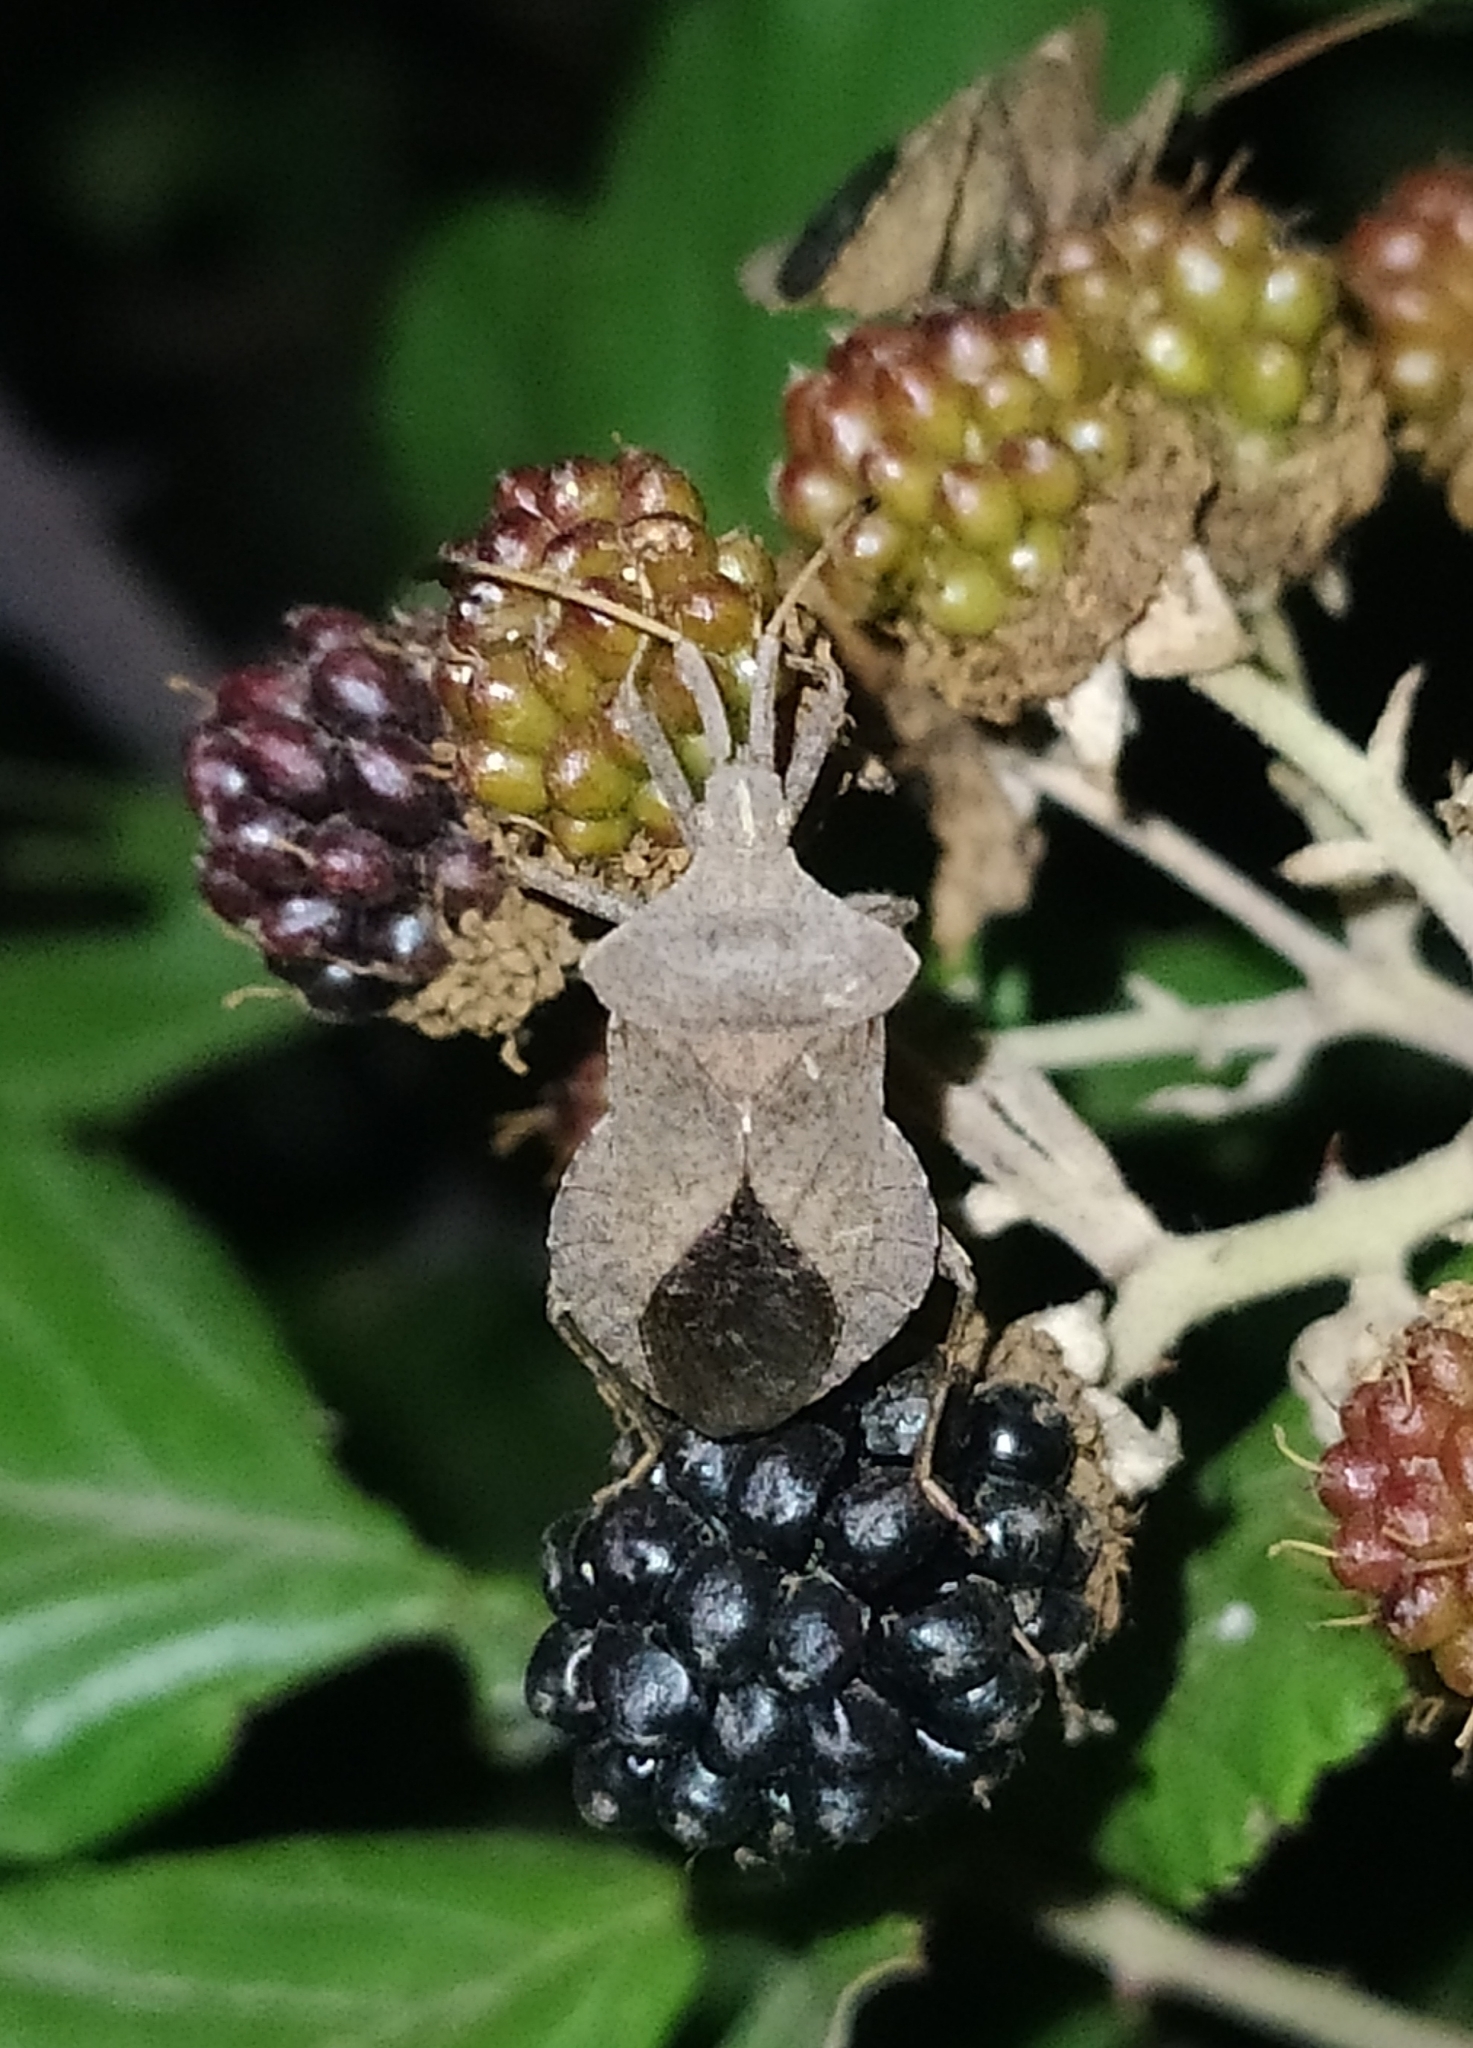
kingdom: Animalia
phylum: Arthropoda
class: Insecta
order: Hemiptera
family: Coreidae
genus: Coreus
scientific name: Coreus marginatus
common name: Dock bug
